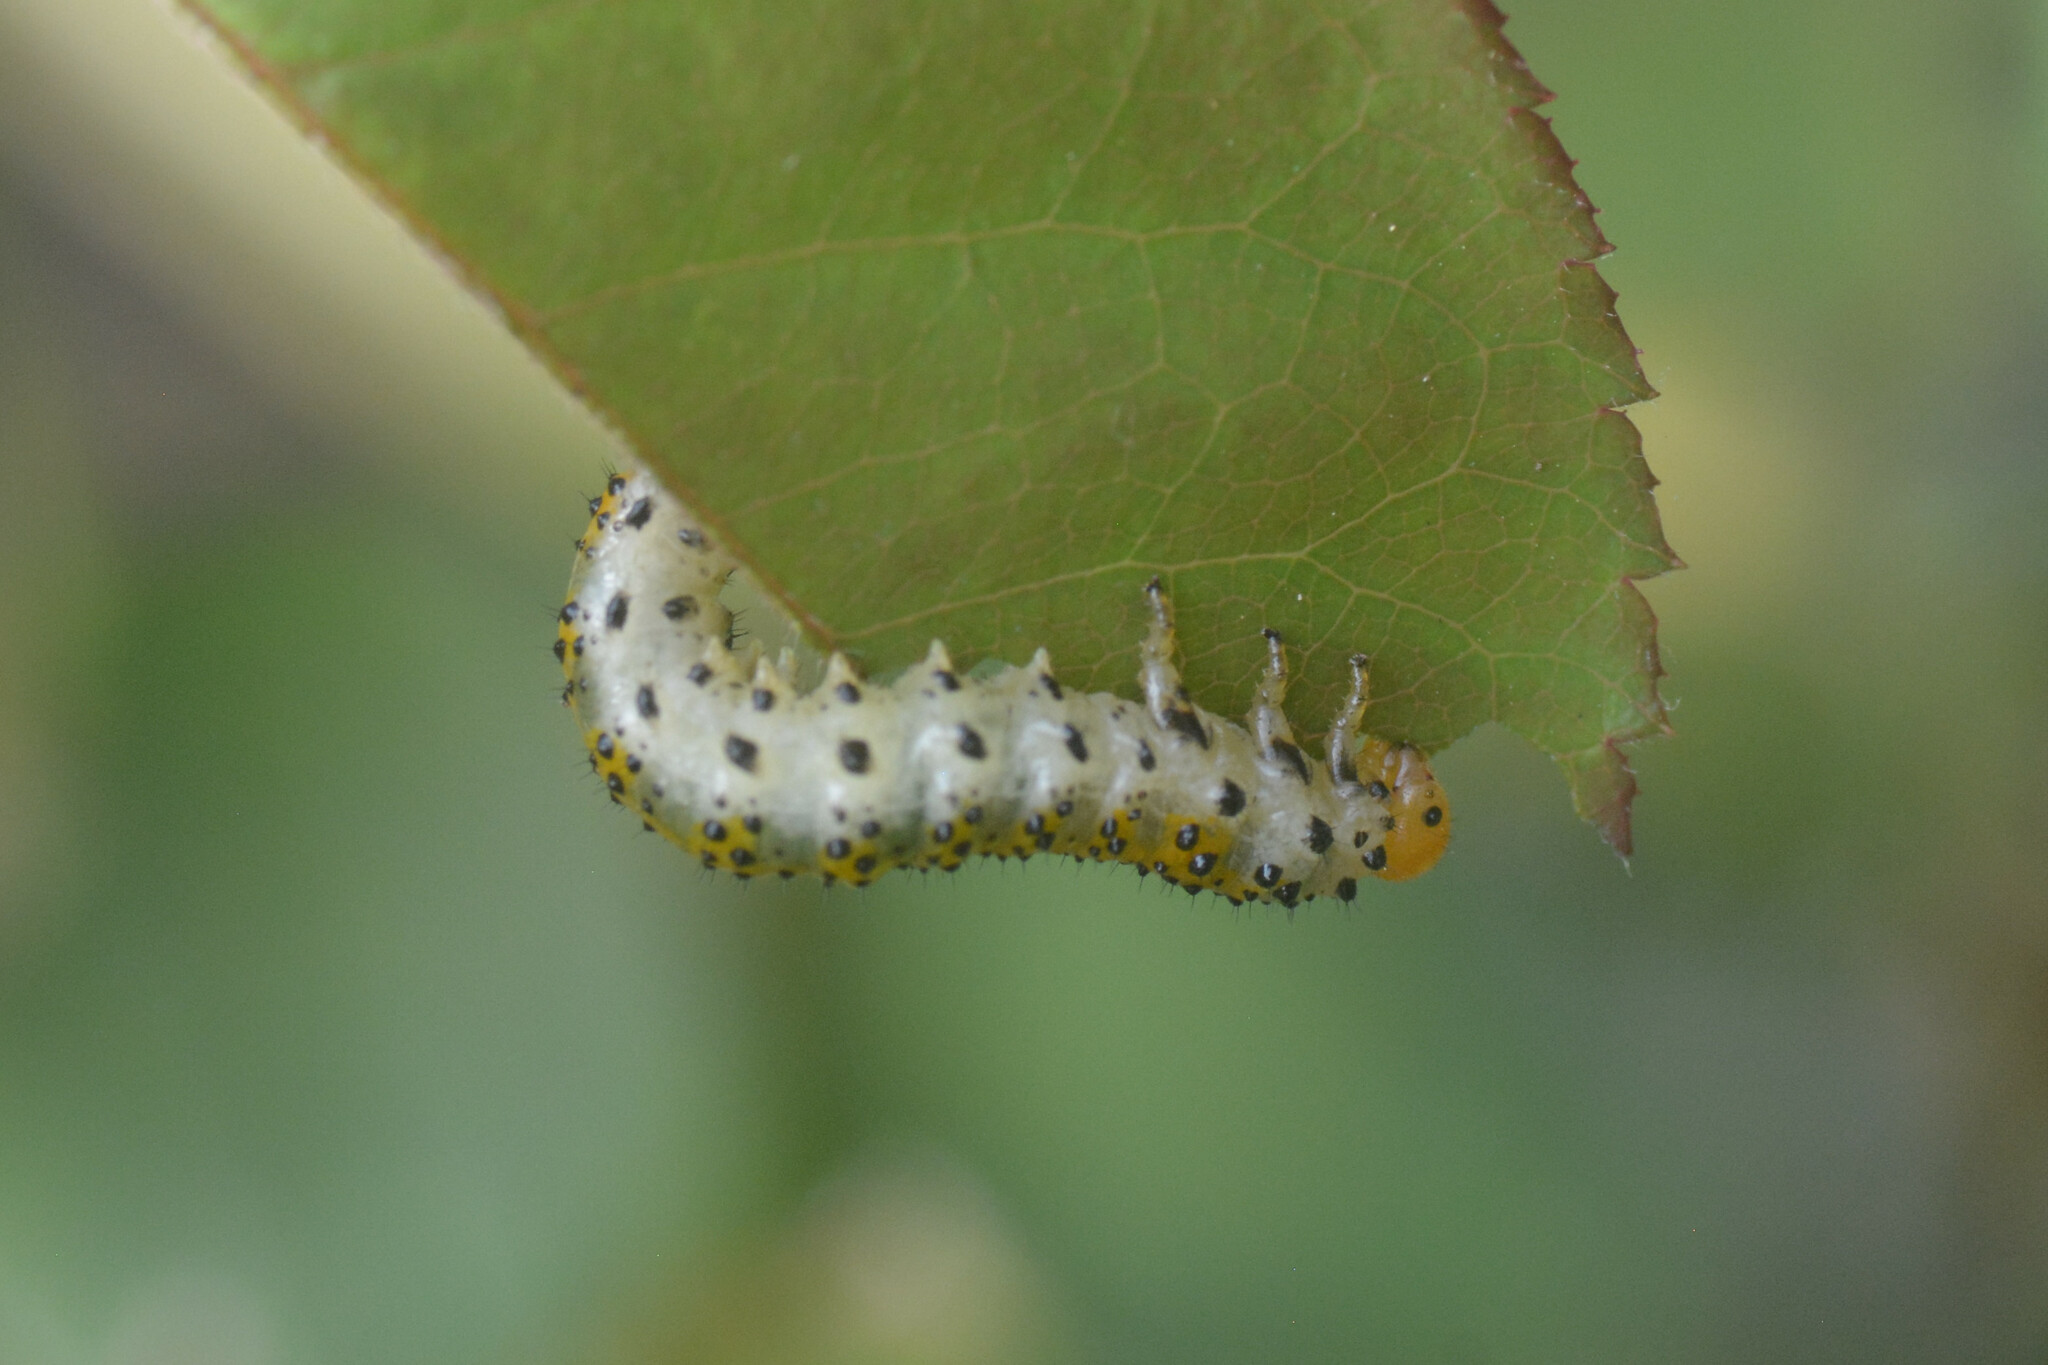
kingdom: Animalia
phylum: Arthropoda
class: Insecta
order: Hymenoptera
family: Argidae
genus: Arge
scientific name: Arge ochropus
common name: Argid sawfly
